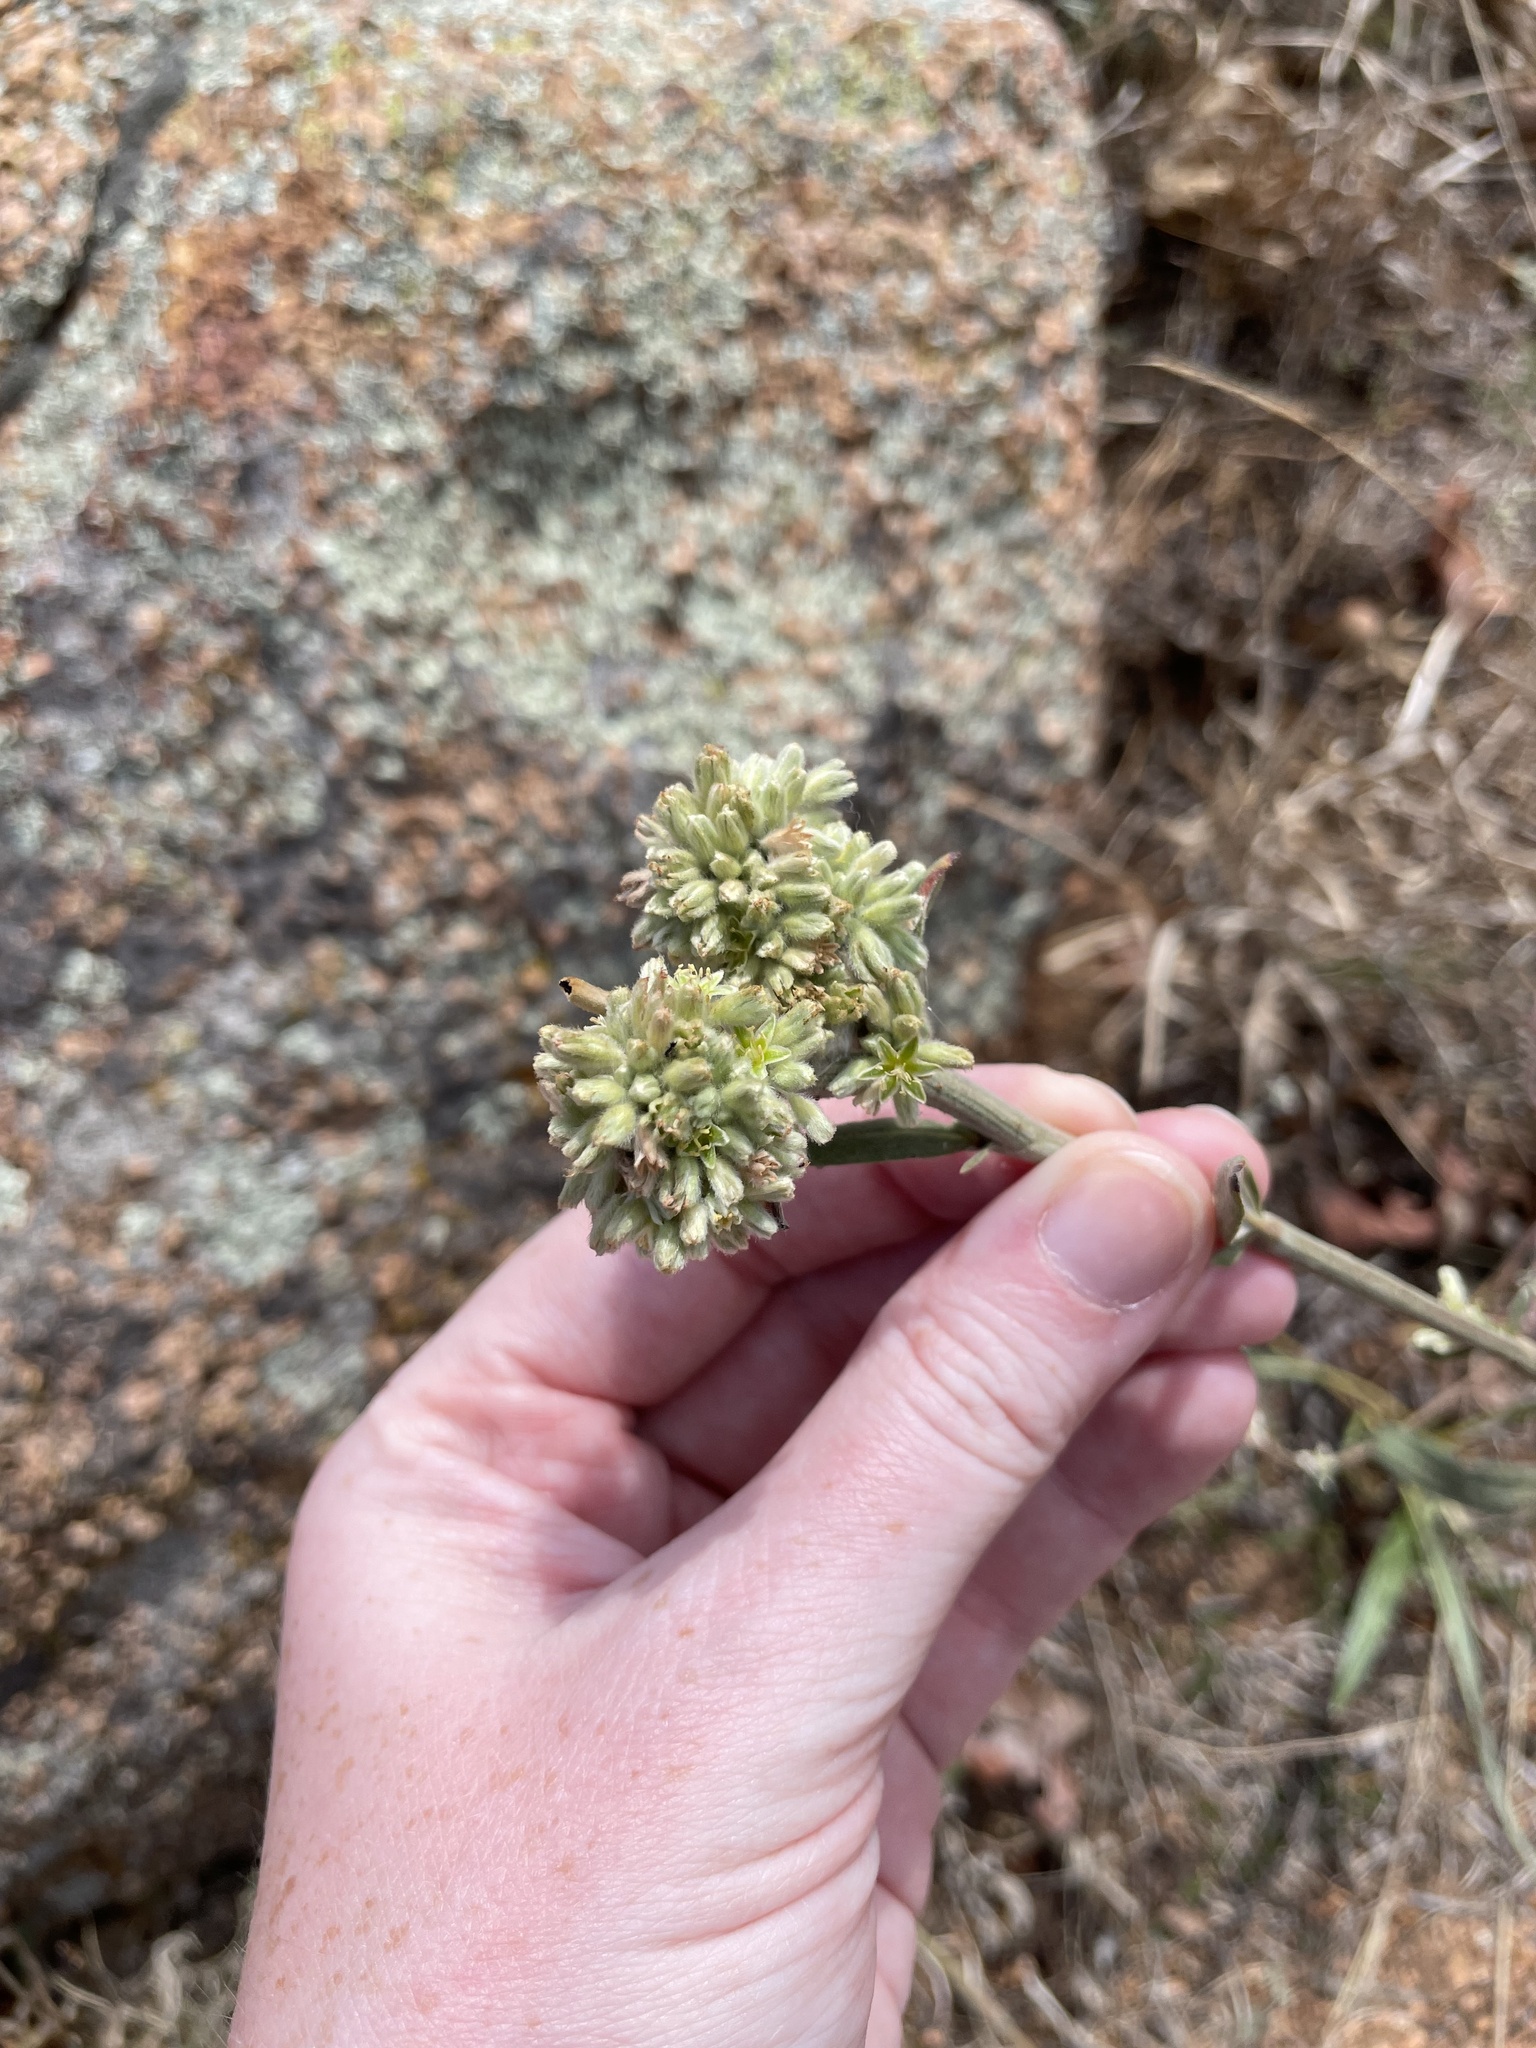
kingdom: Plantae
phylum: Tracheophyta
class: Magnoliopsida
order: Caryophyllales
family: Polygonaceae
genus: Eriogonum
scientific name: Eriogonum longifolium
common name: Longleaf wild buckwheat
